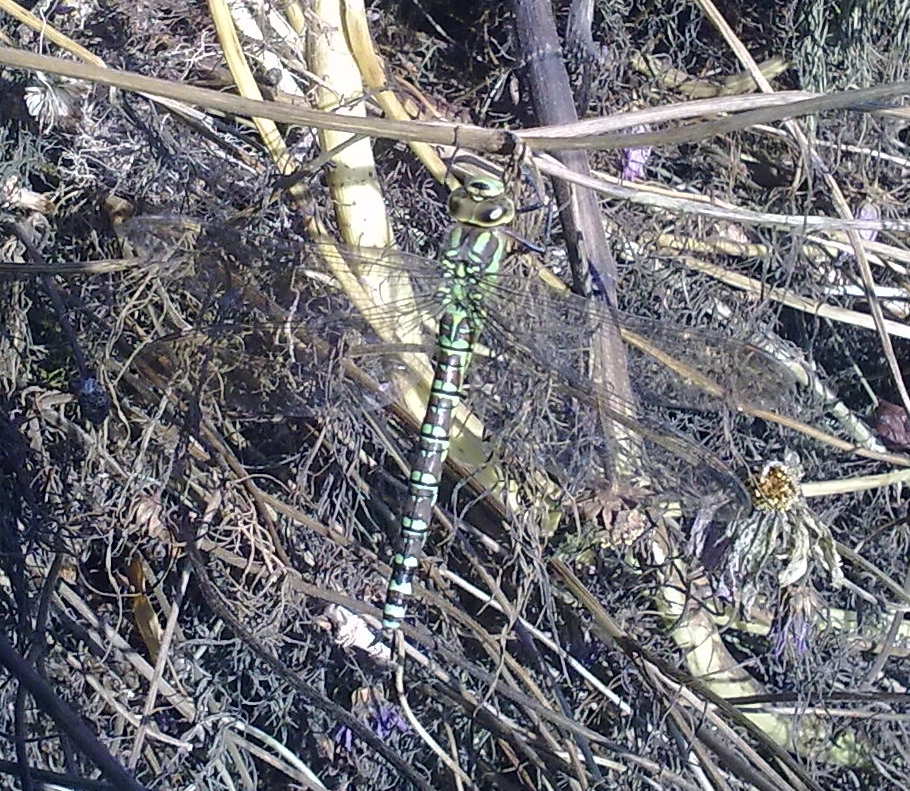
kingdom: Animalia
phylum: Arthropoda
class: Insecta
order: Odonata
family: Aeshnidae
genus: Aeshna
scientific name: Aeshna cyanea
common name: Southern hawker
